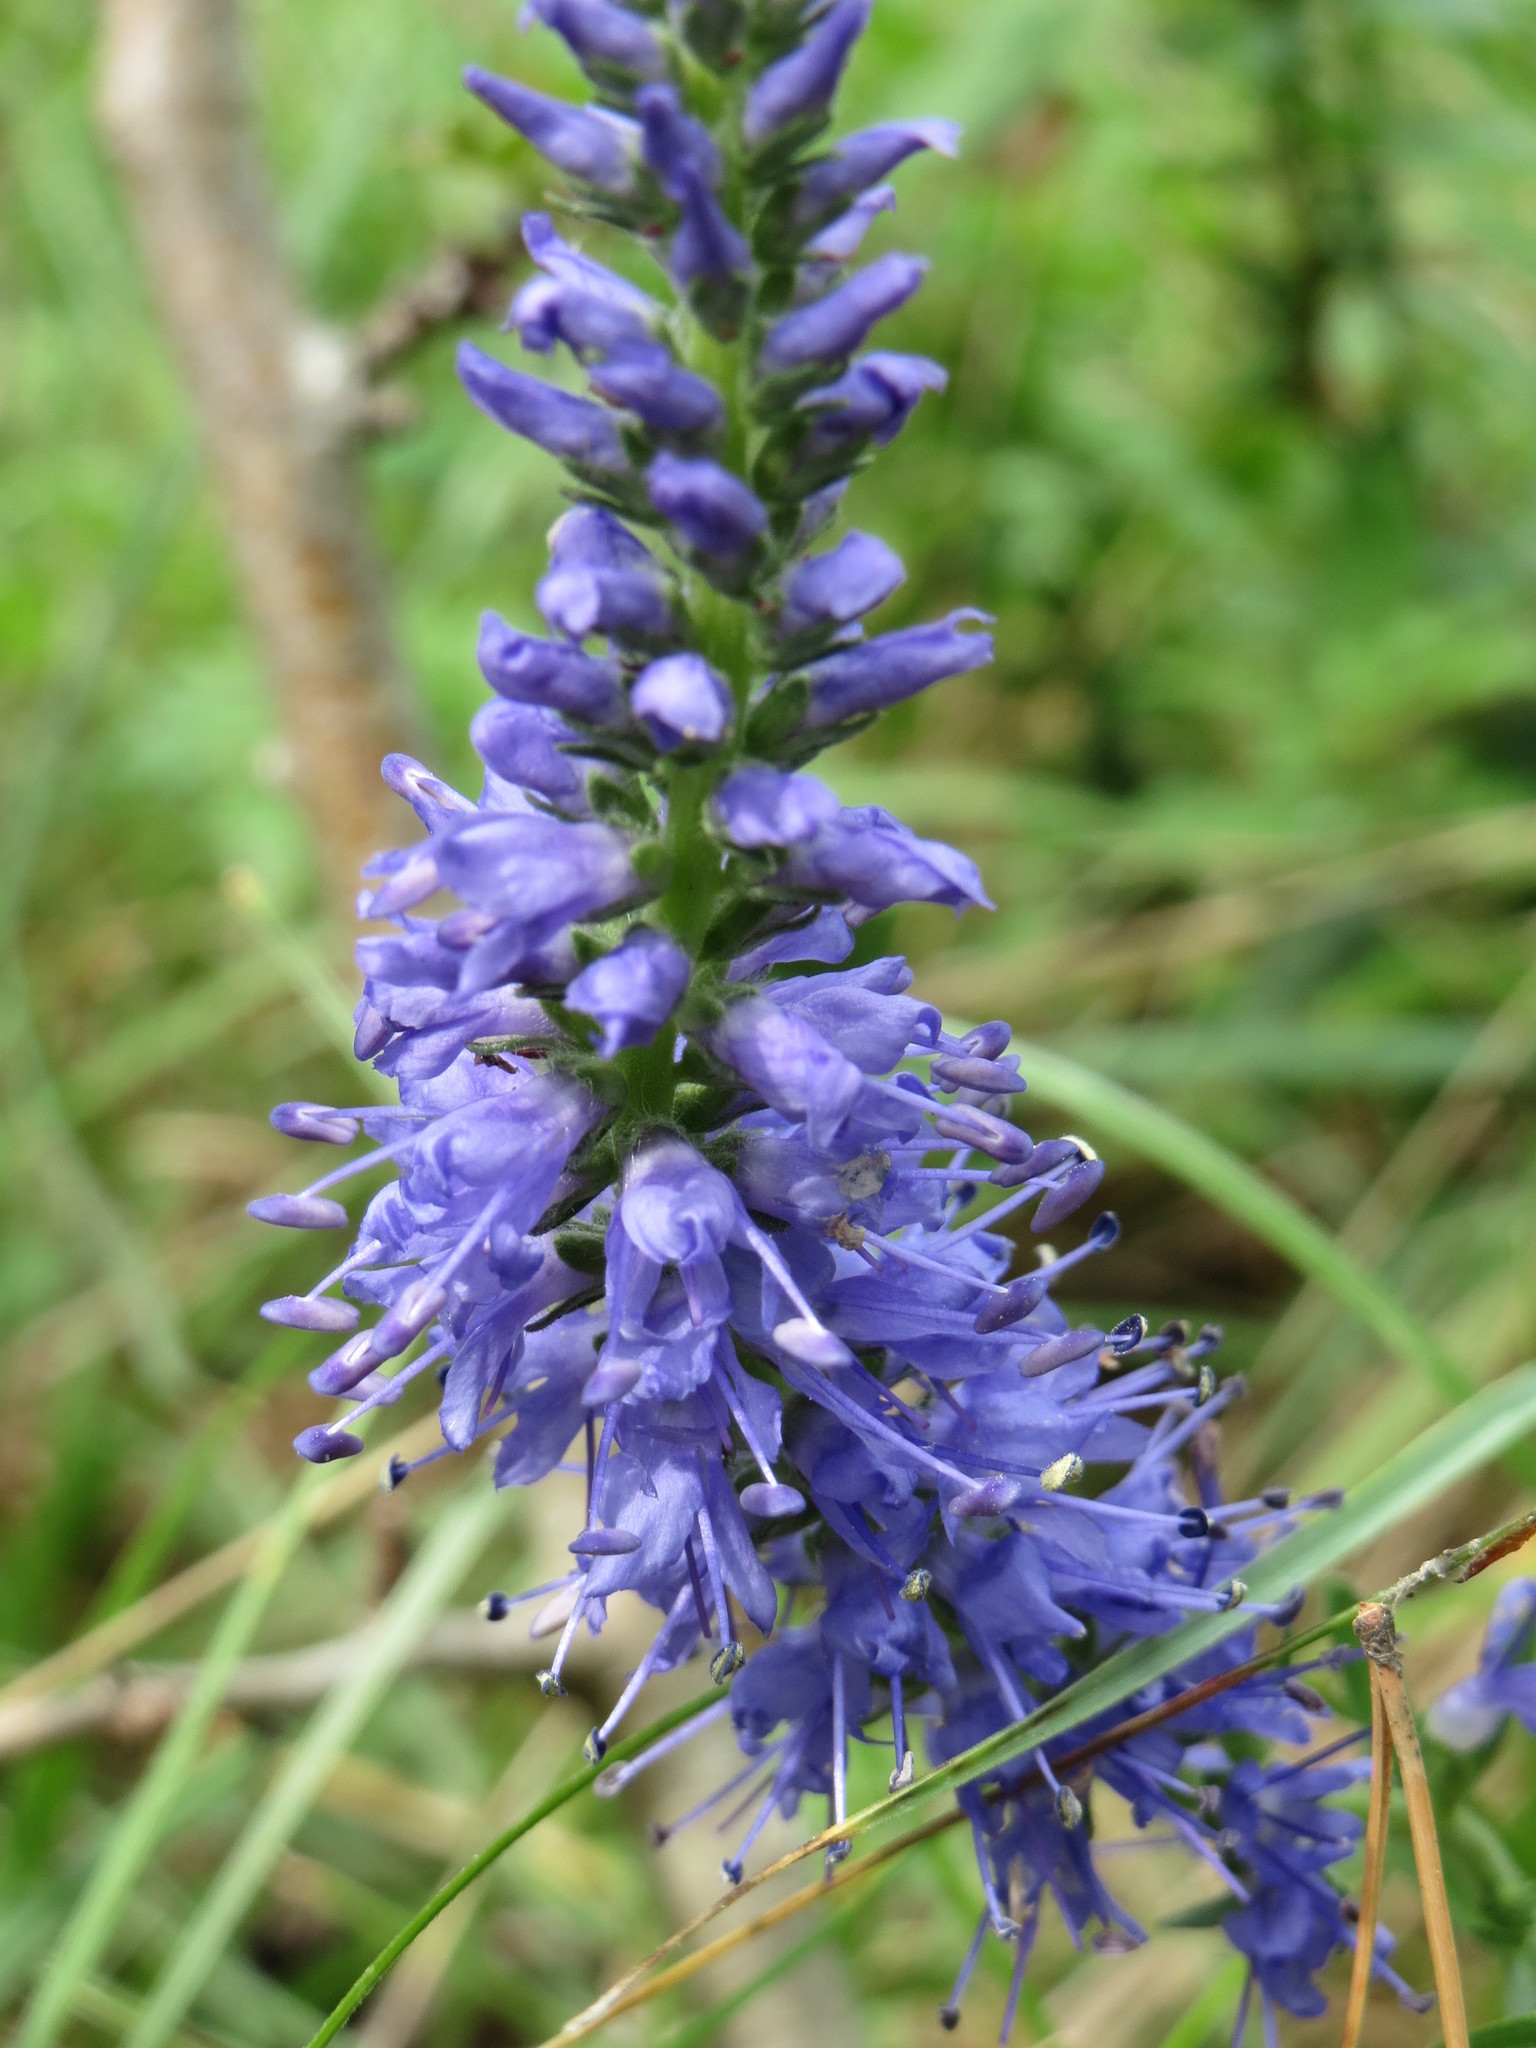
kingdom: Plantae
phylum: Tracheophyta
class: Magnoliopsida
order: Lamiales
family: Plantaginaceae
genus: Veronica
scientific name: Veronica spicata
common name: Spiked speedwell
